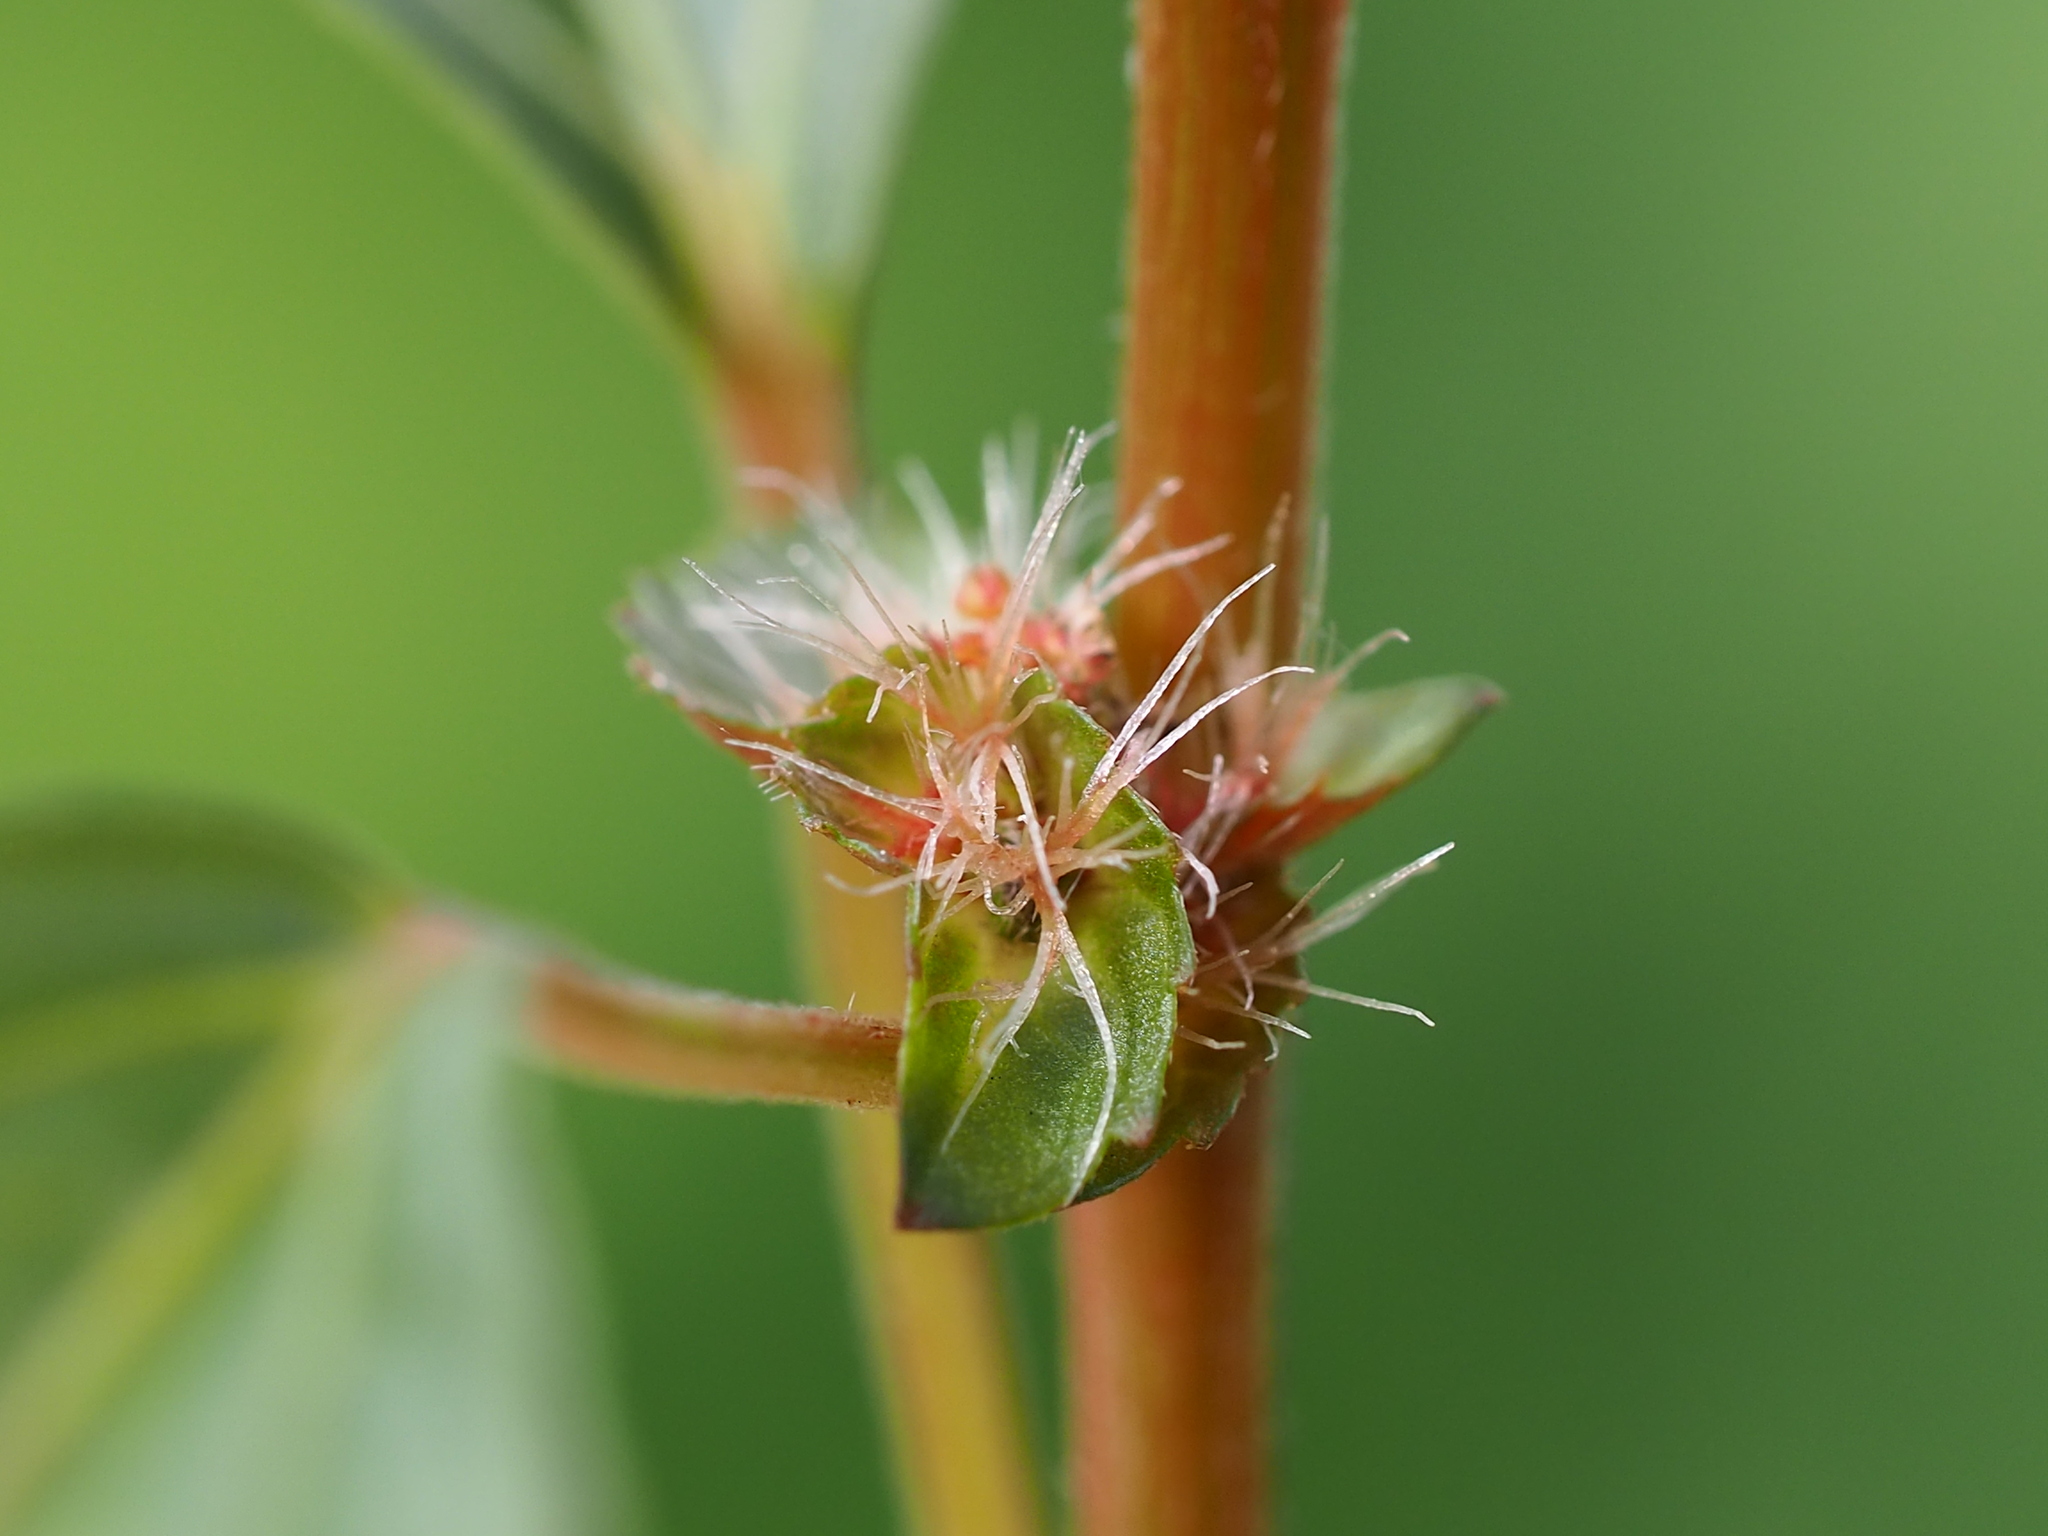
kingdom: Plantae
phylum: Tracheophyta
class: Magnoliopsida
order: Malpighiales
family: Euphorbiaceae
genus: Acalypha
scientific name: Acalypha australis
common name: Asian copperleaf
